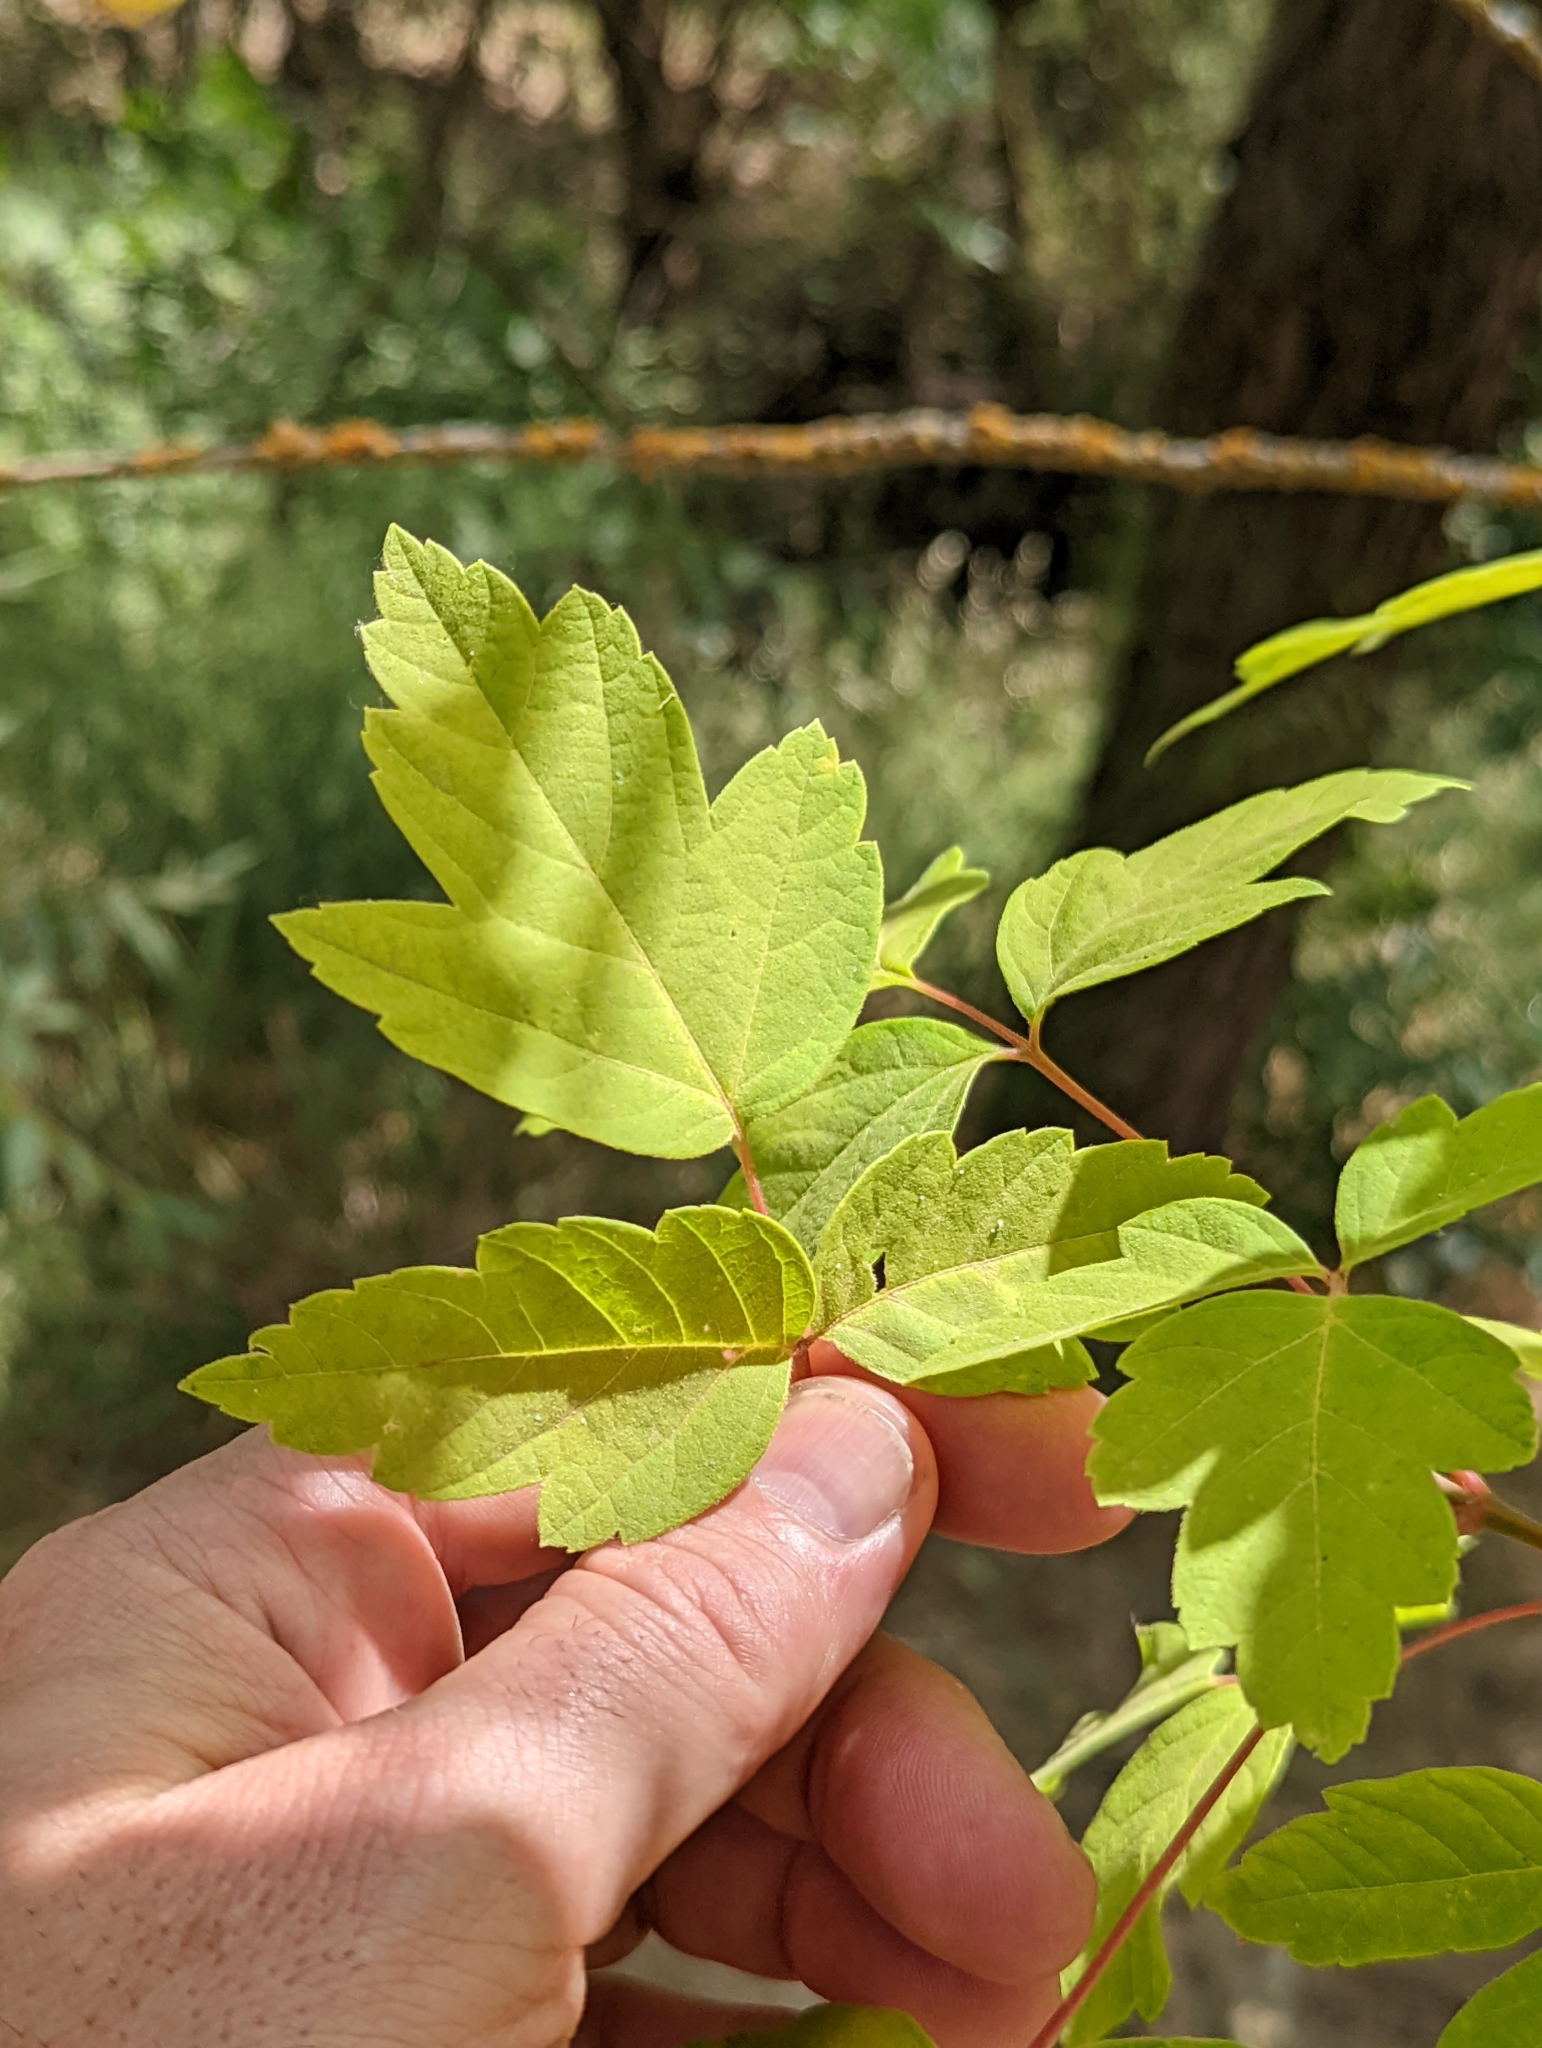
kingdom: Plantae
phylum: Tracheophyta
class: Magnoliopsida
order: Sapindales
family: Sapindaceae
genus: Acer
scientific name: Acer negundo
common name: Ashleaf maple
